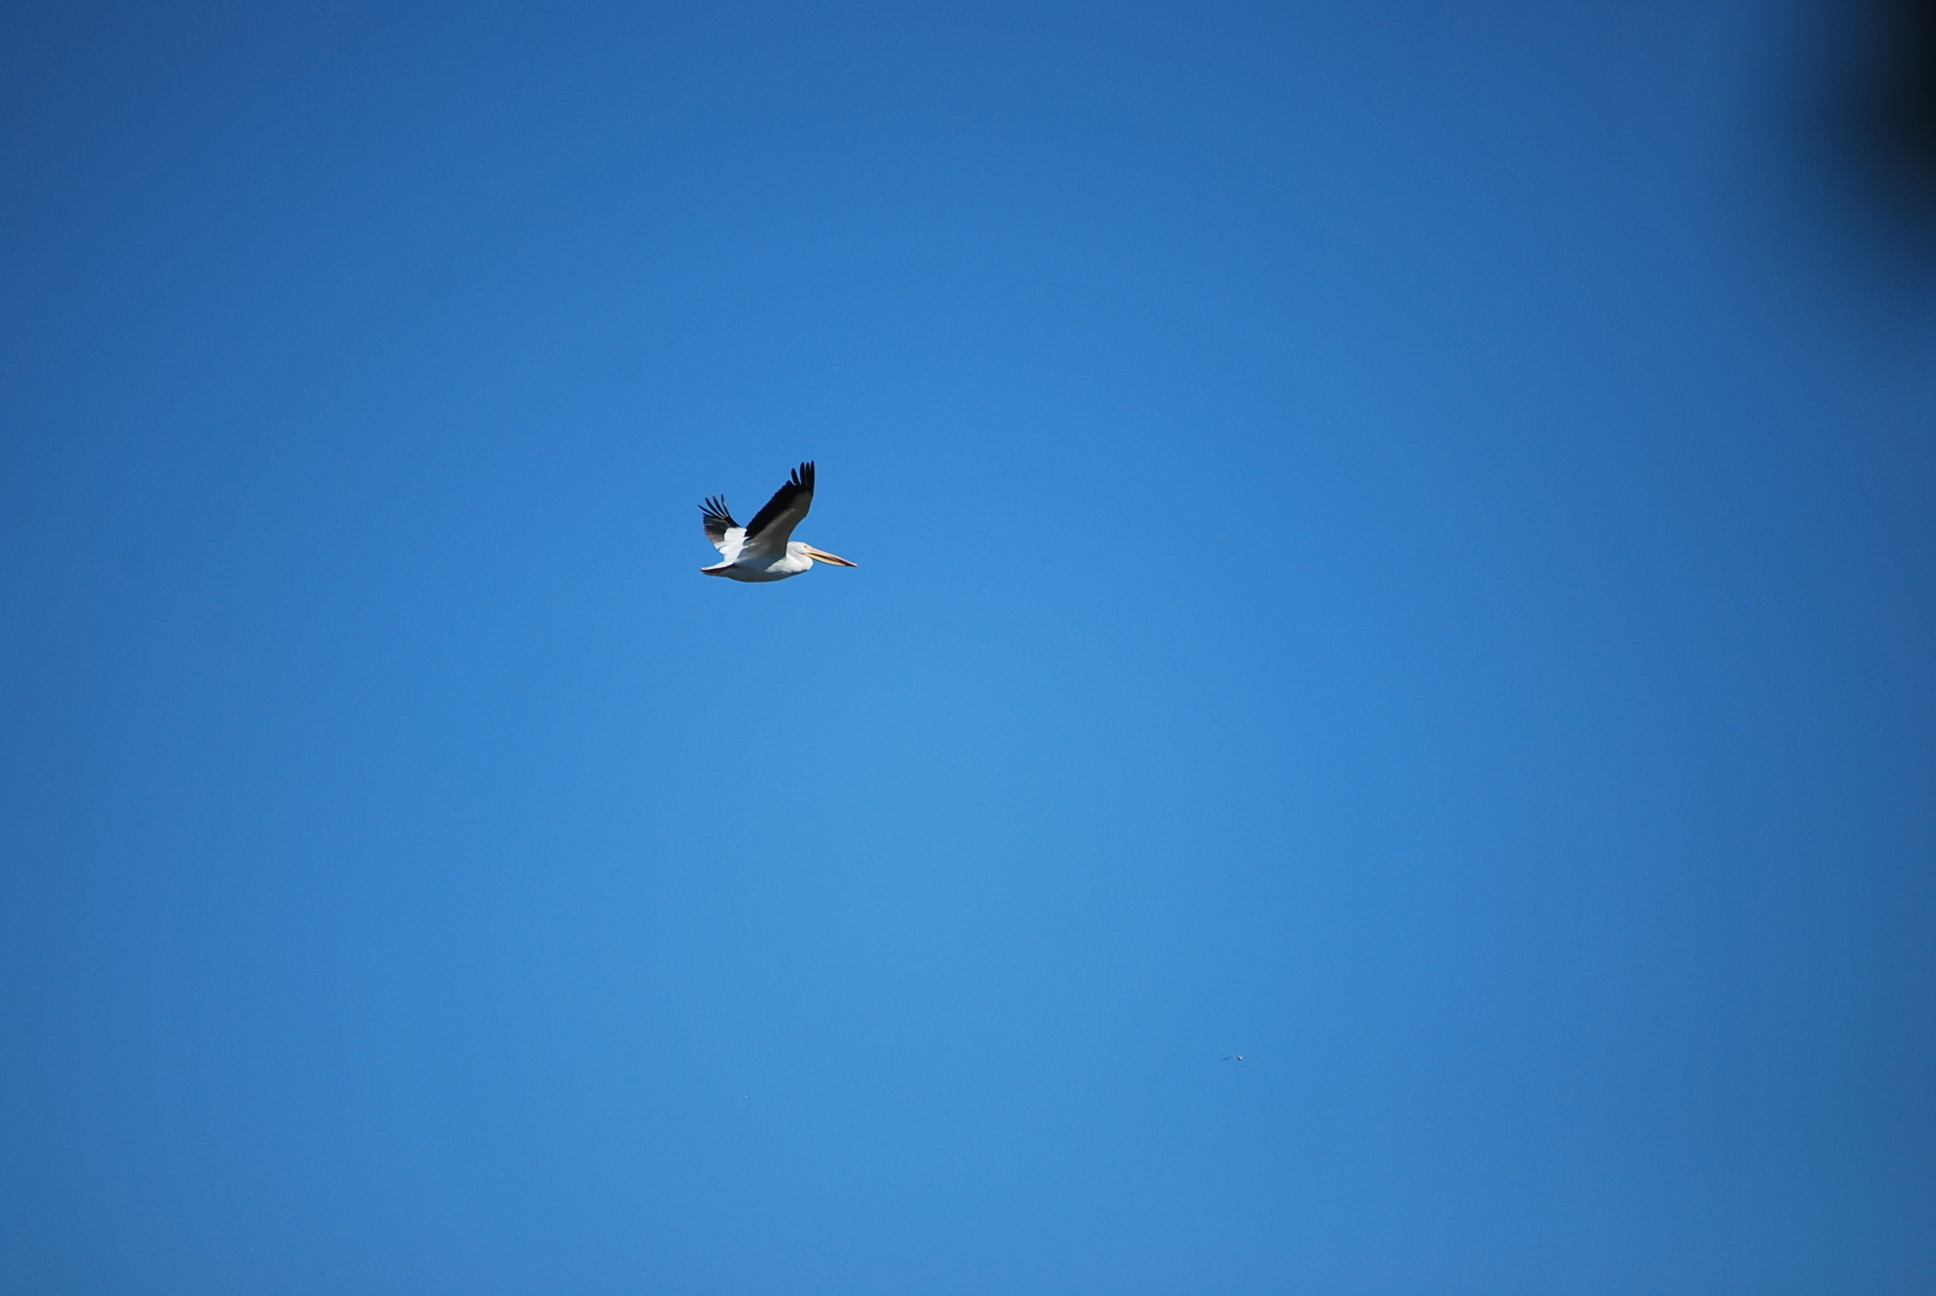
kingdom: Animalia
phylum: Chordata
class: Aves
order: Pelecaniformes
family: Pelecanidae
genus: Pelecanus
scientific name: Pelecanus erythrorhynchos
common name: American white pelican
